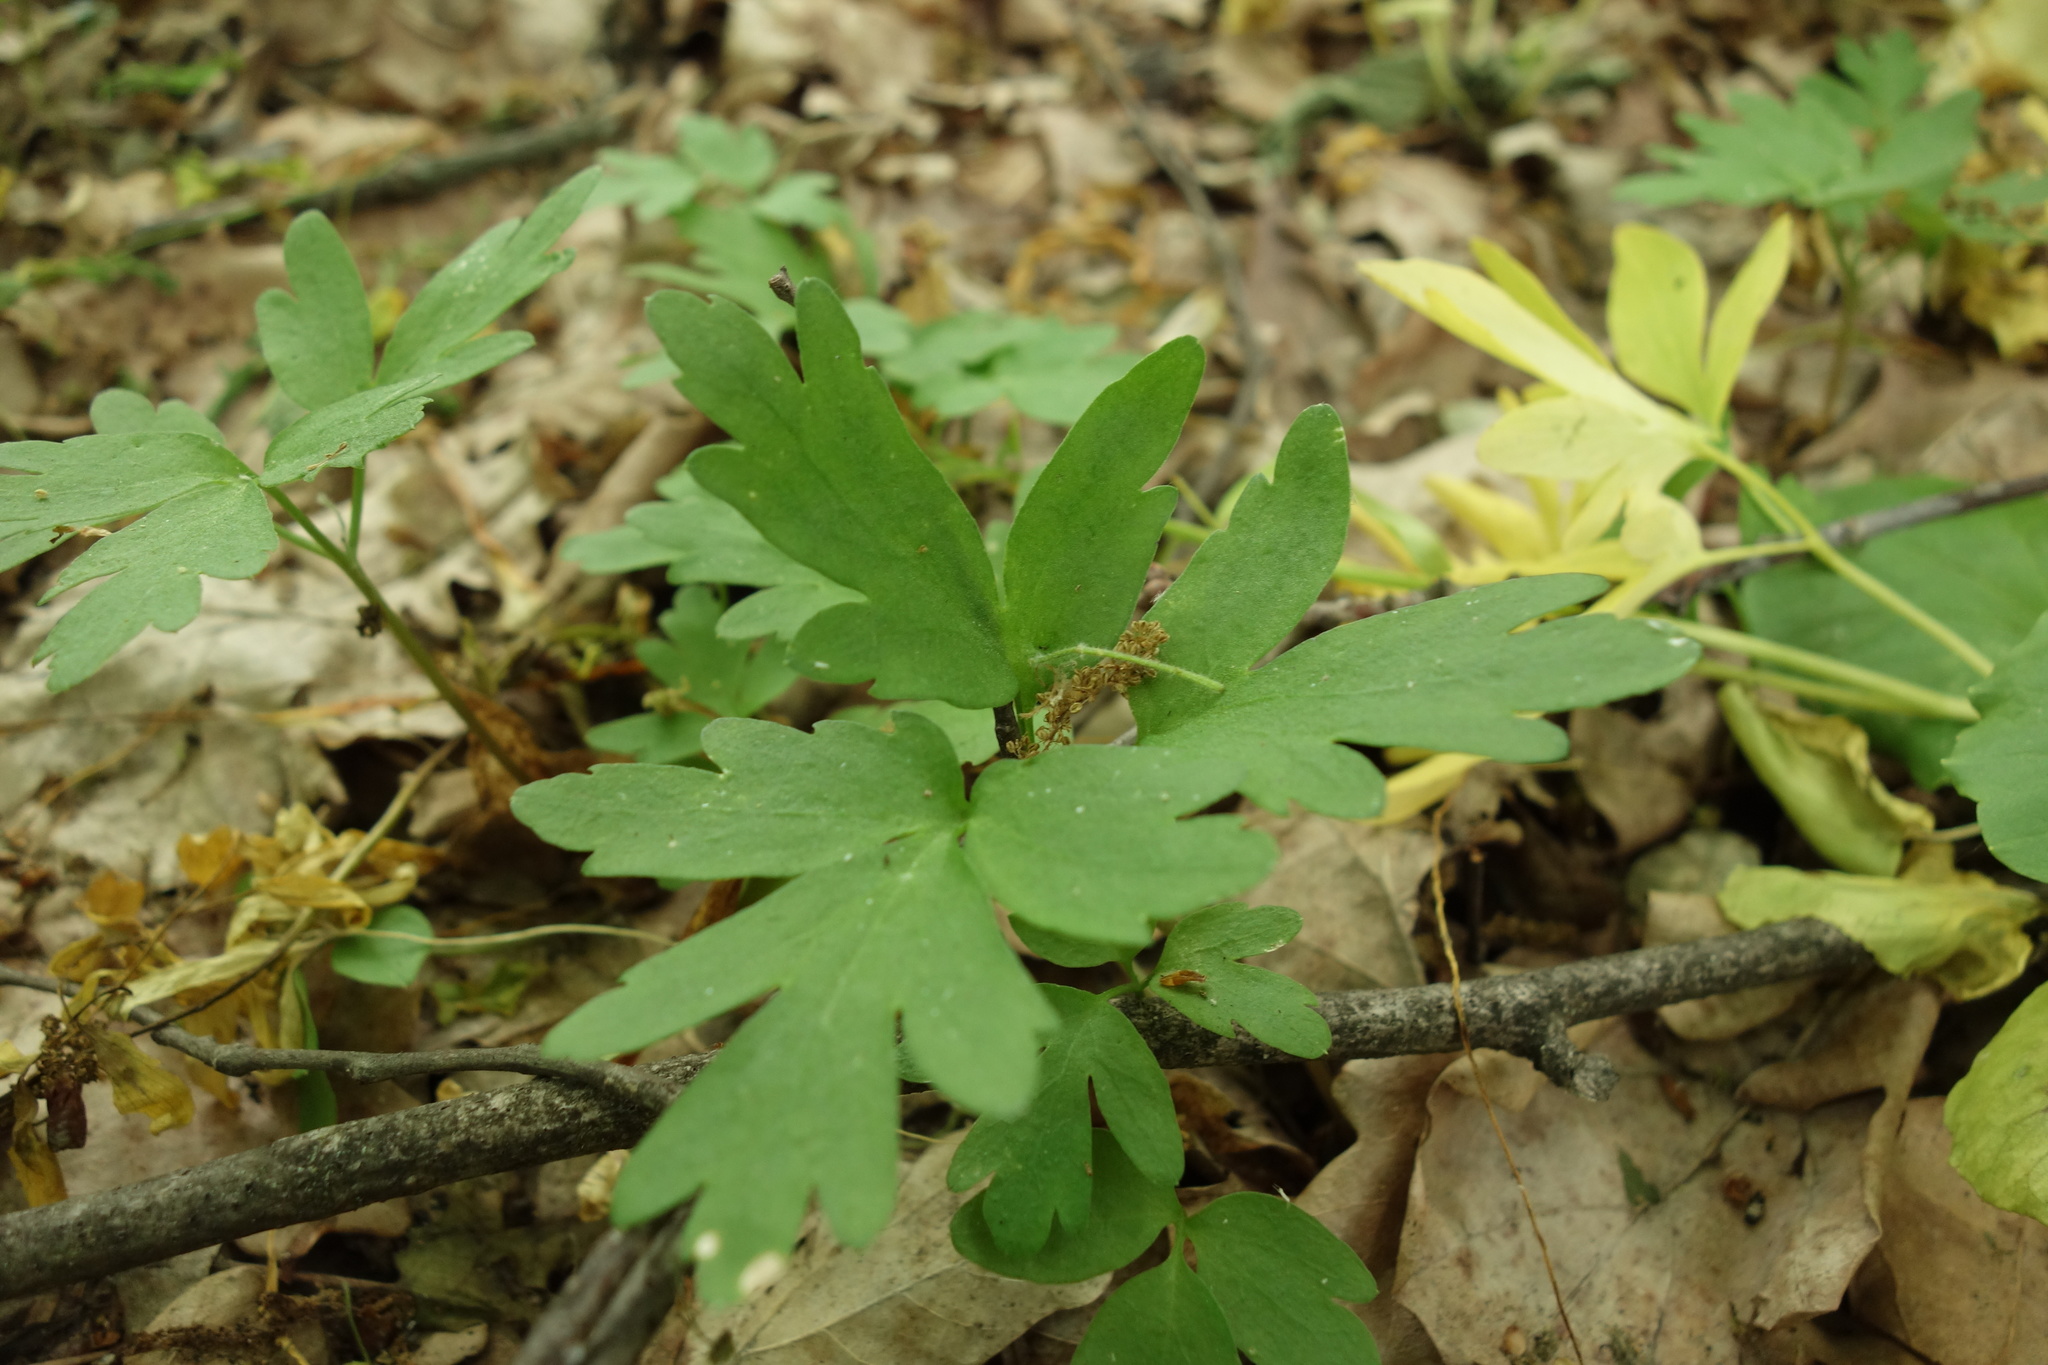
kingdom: Plantae
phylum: Tracheophyta
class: Magnoliopsida
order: Dipsacales
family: Viburnaceae
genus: Adoxa
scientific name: Adoxa moschatellina
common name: Moschatel
